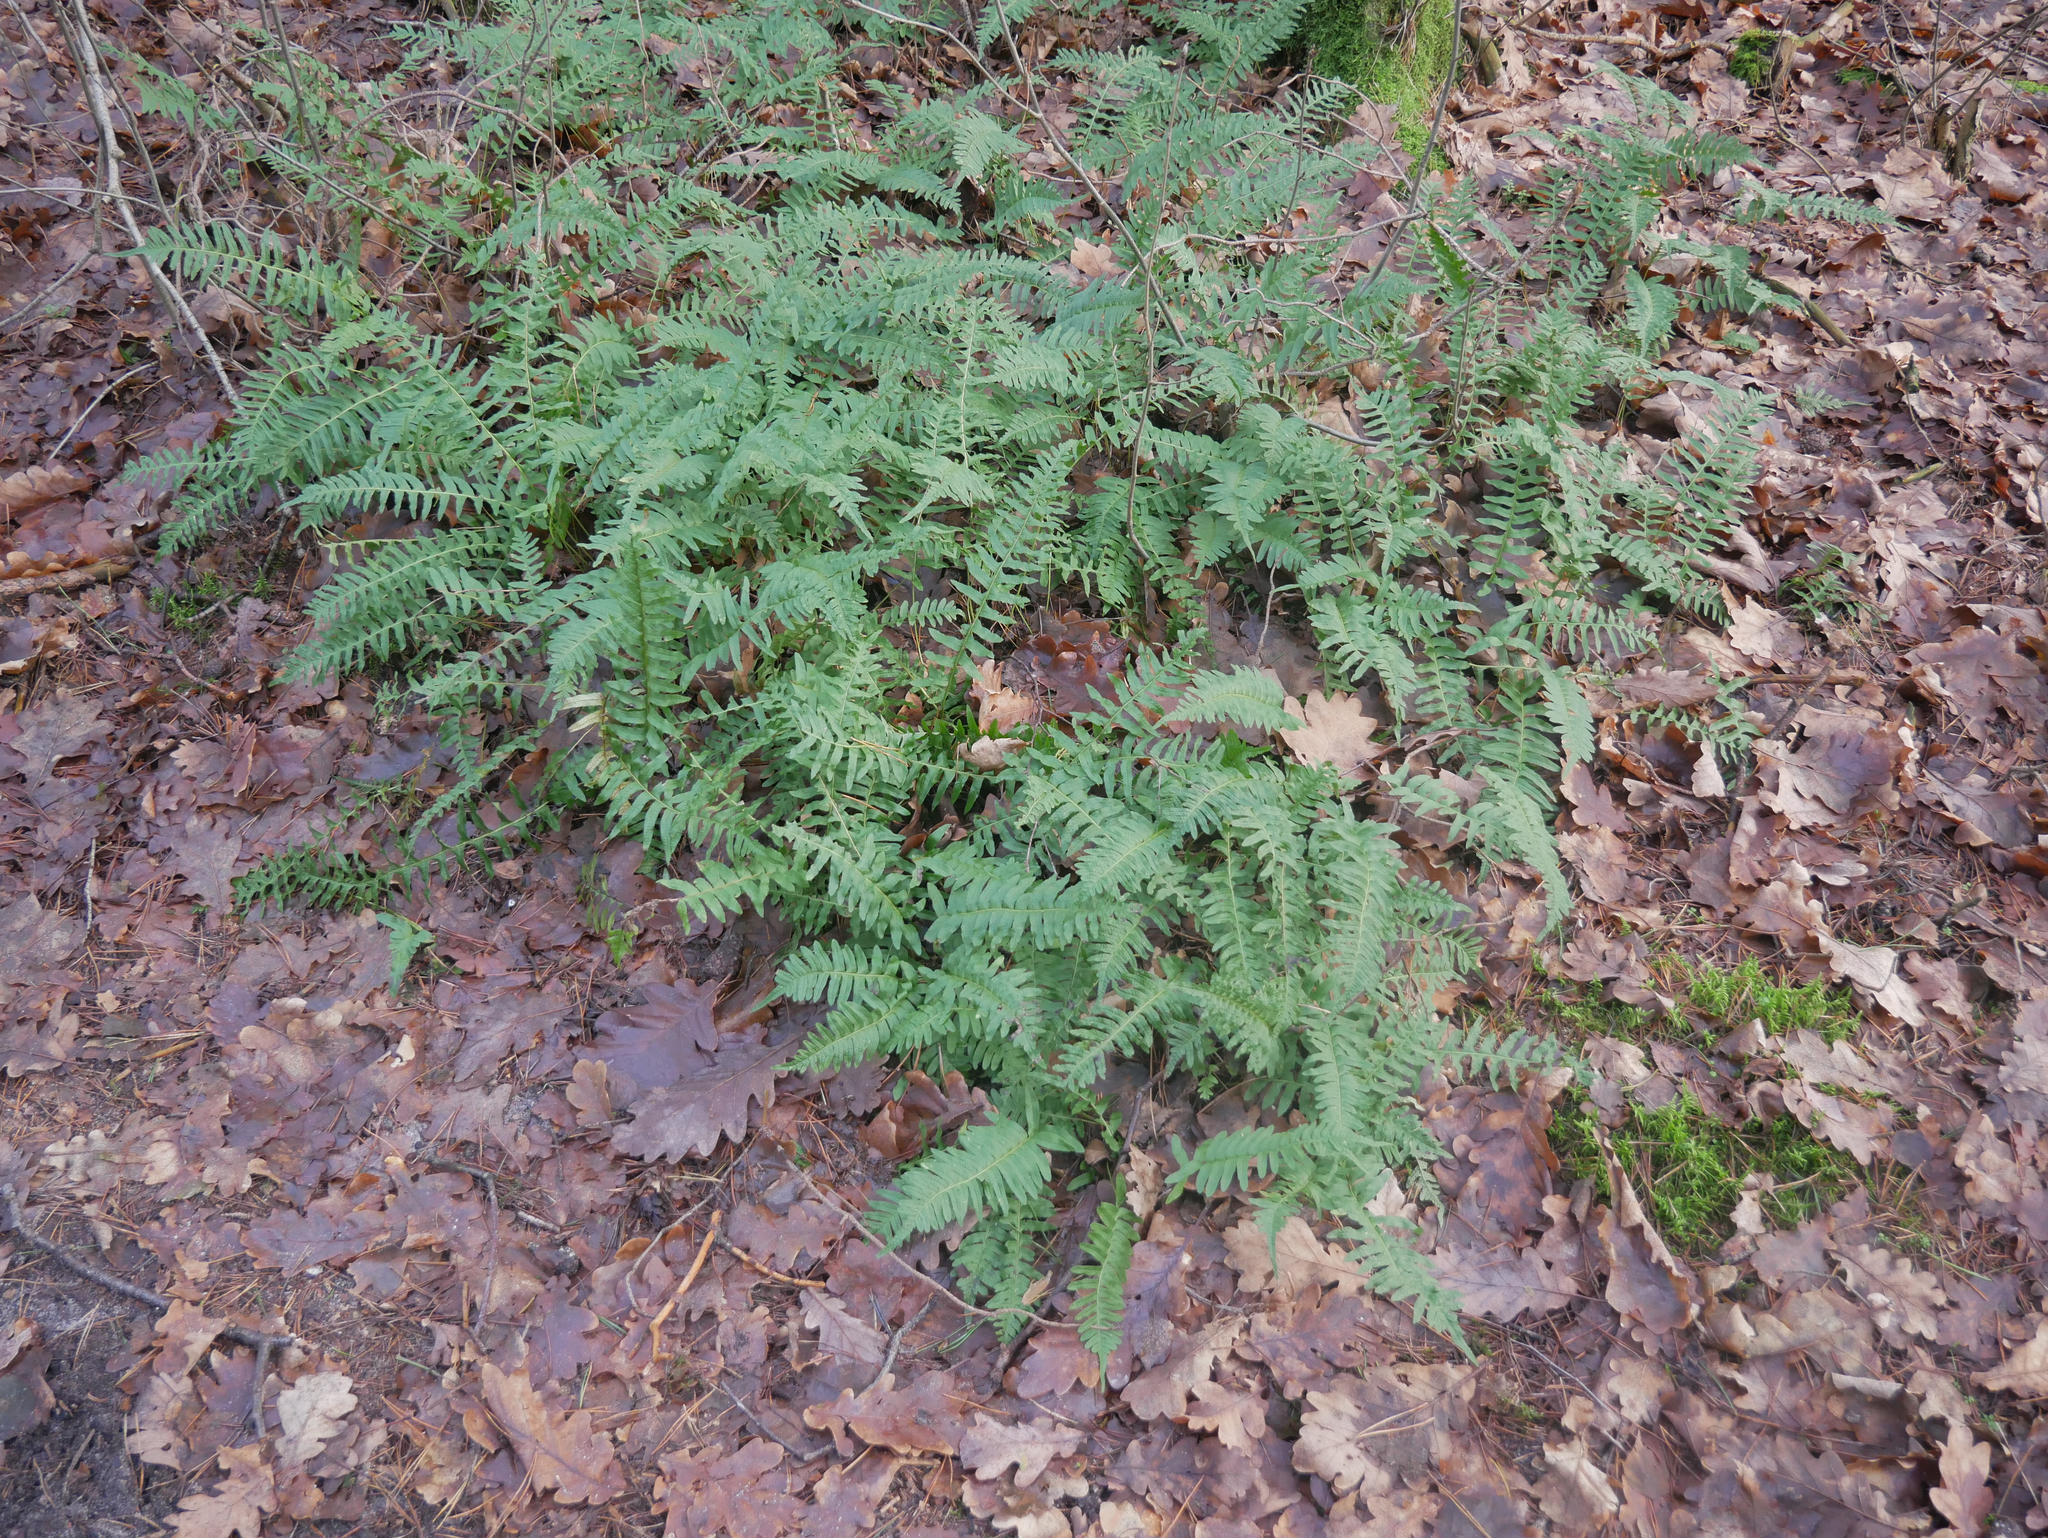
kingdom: Plantae
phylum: Tracheophyta
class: Polypodiopsida
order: Polypodiales
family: Polypodiaceae
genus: Polypodium
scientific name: Polypodium vulgare
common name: Common polypody
